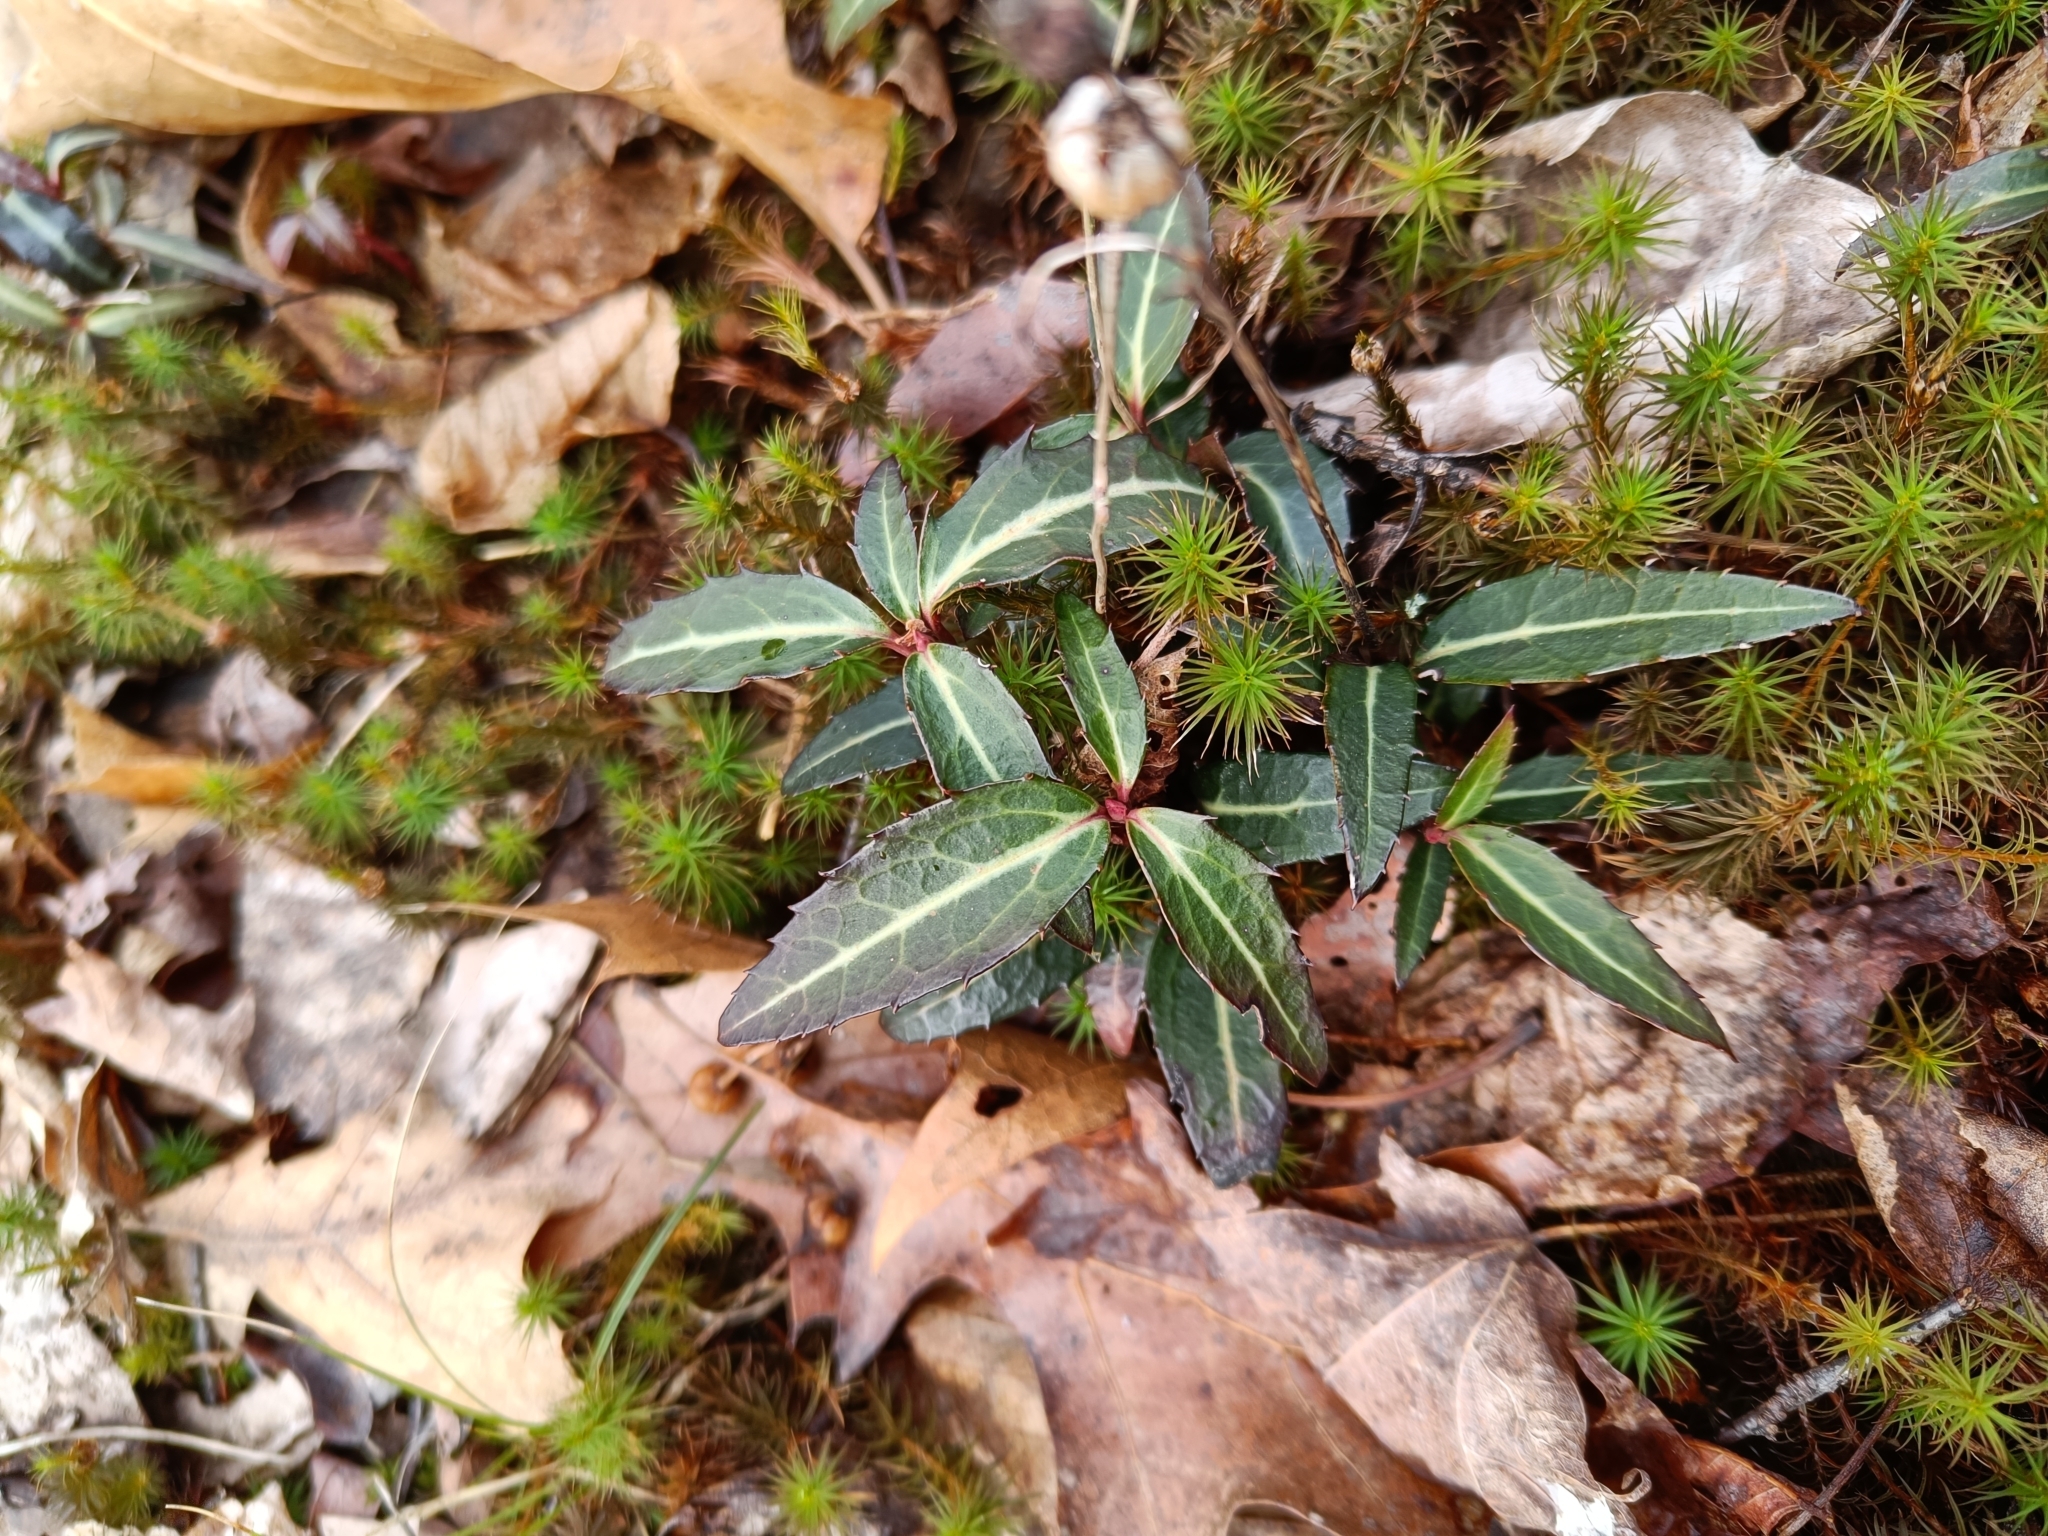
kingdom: Plantae
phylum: Tracheophyta
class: Magnoliopsida
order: Ericales
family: Ericaceae
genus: Chimaphila
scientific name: Chimaphila maculata
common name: Spotted pipsissewa
